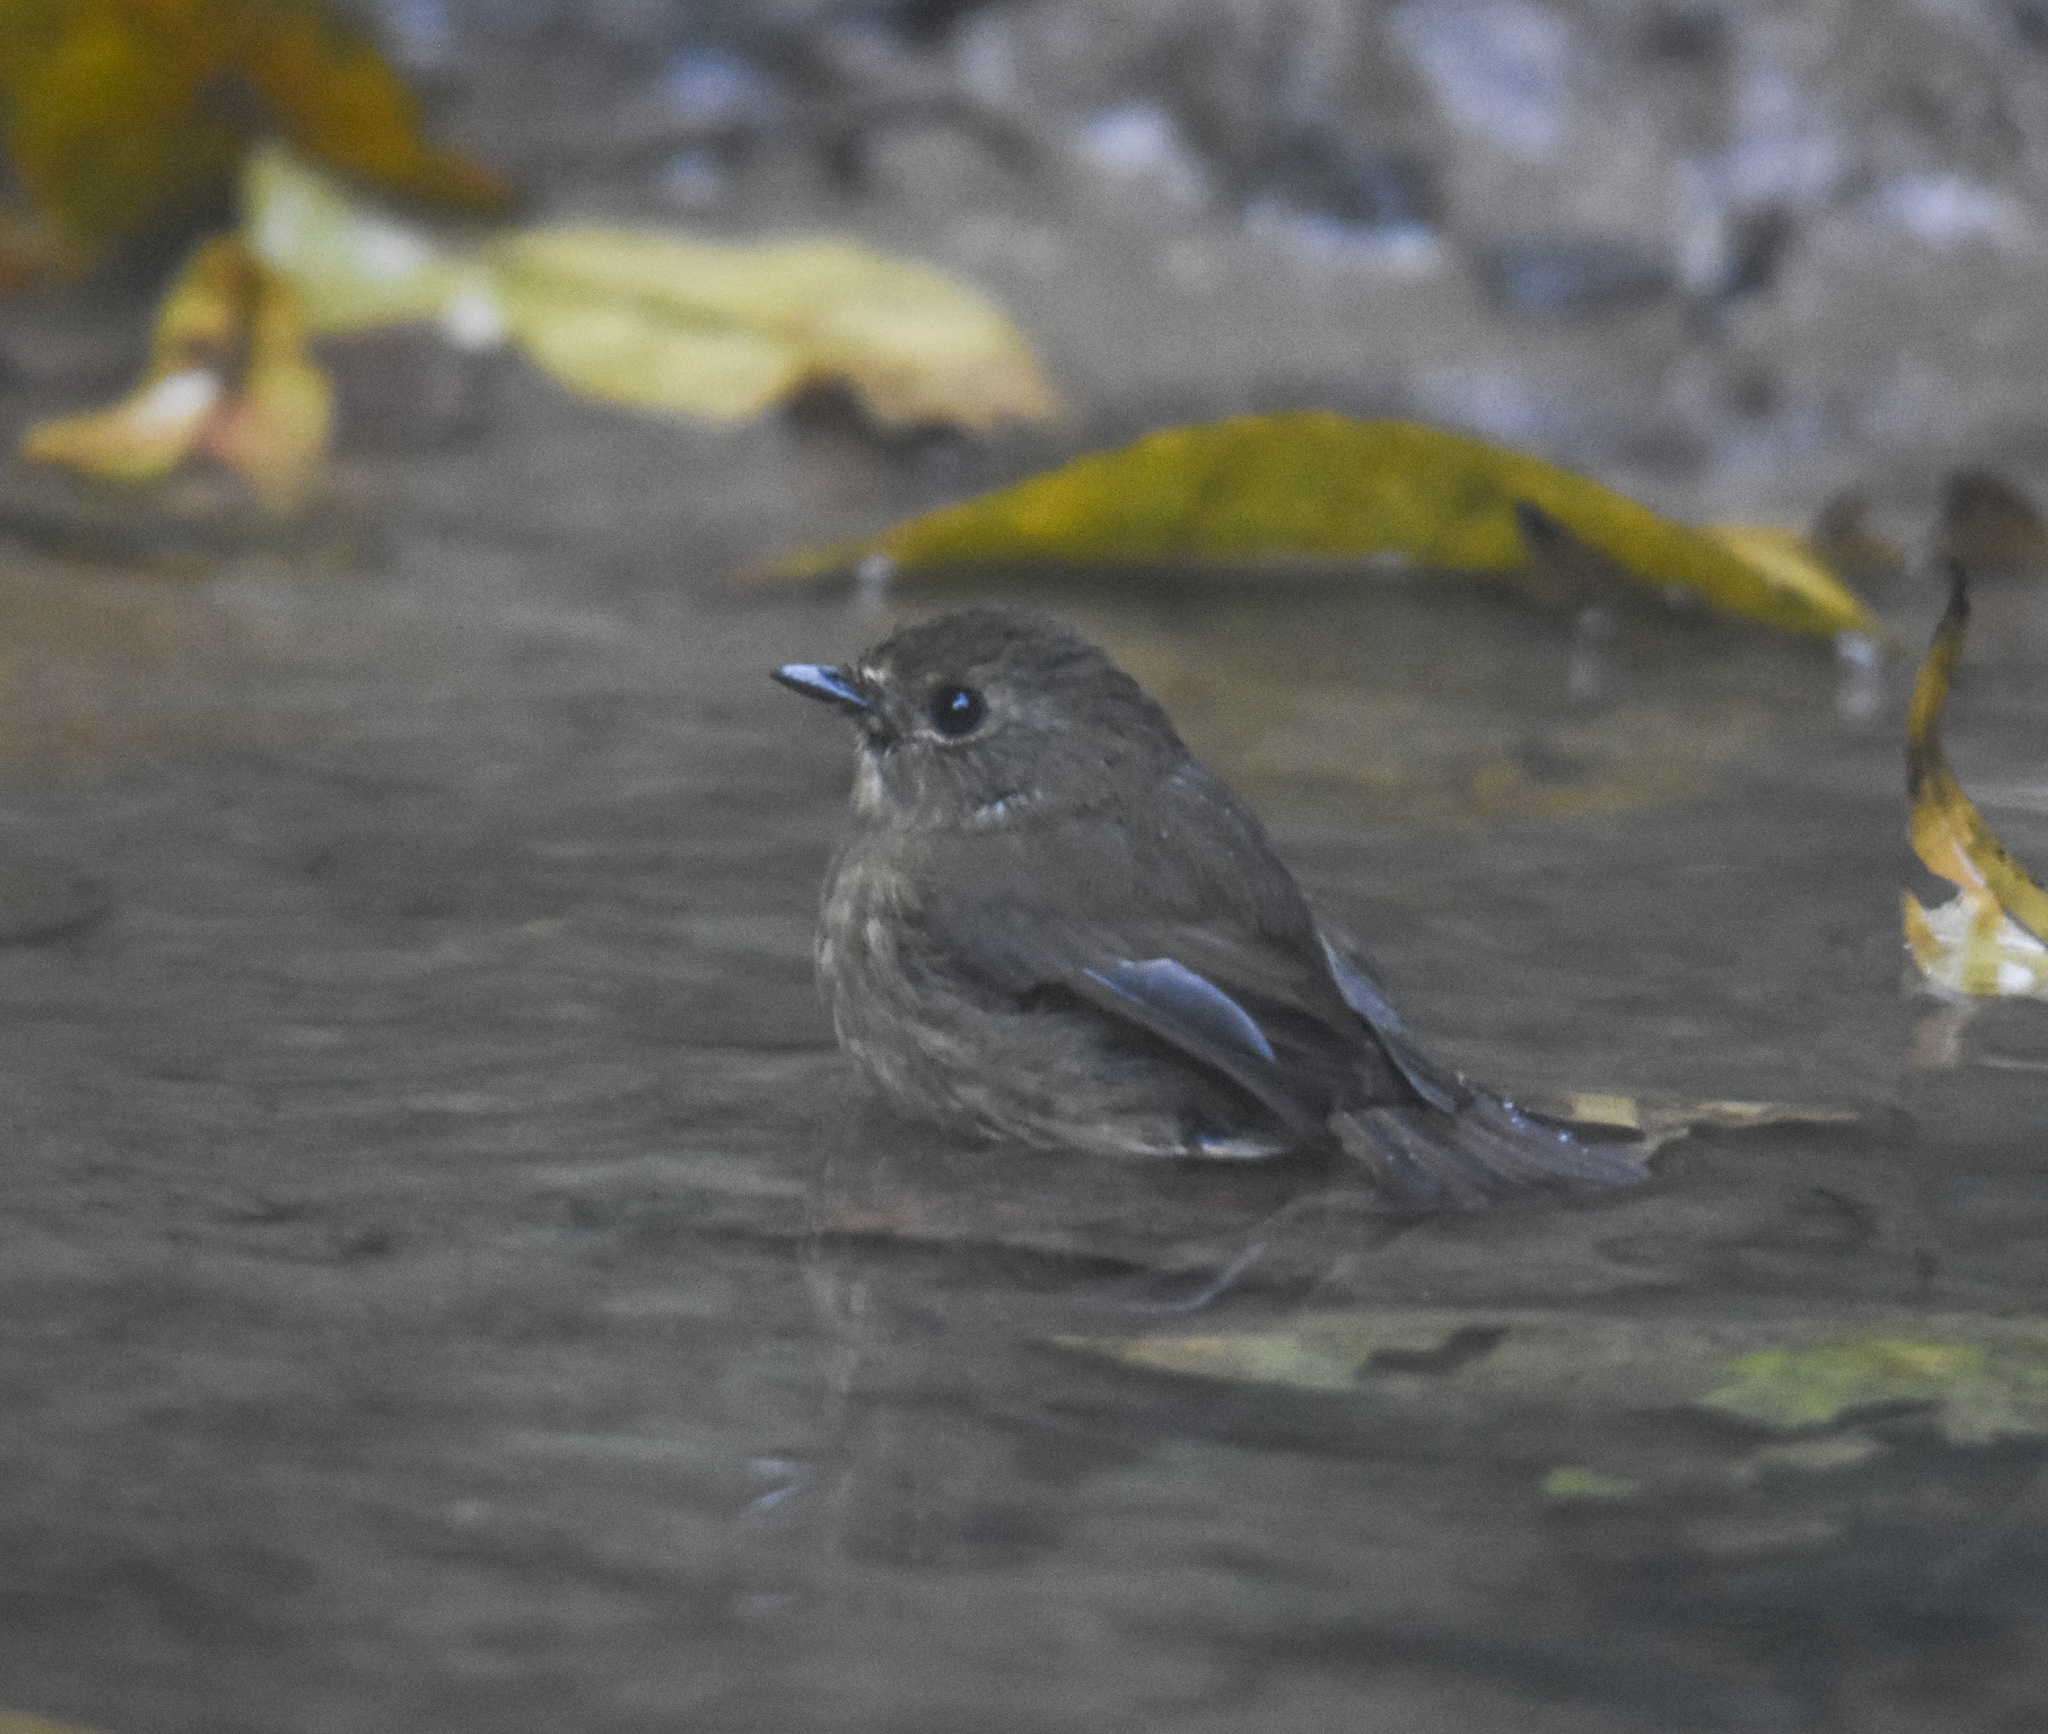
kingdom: Animalia
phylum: Chordata
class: Aves
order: Passeriformes
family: Muscicapidae
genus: Ficedula
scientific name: Ficedula hyperythra
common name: Snowy-browed flycatcher
